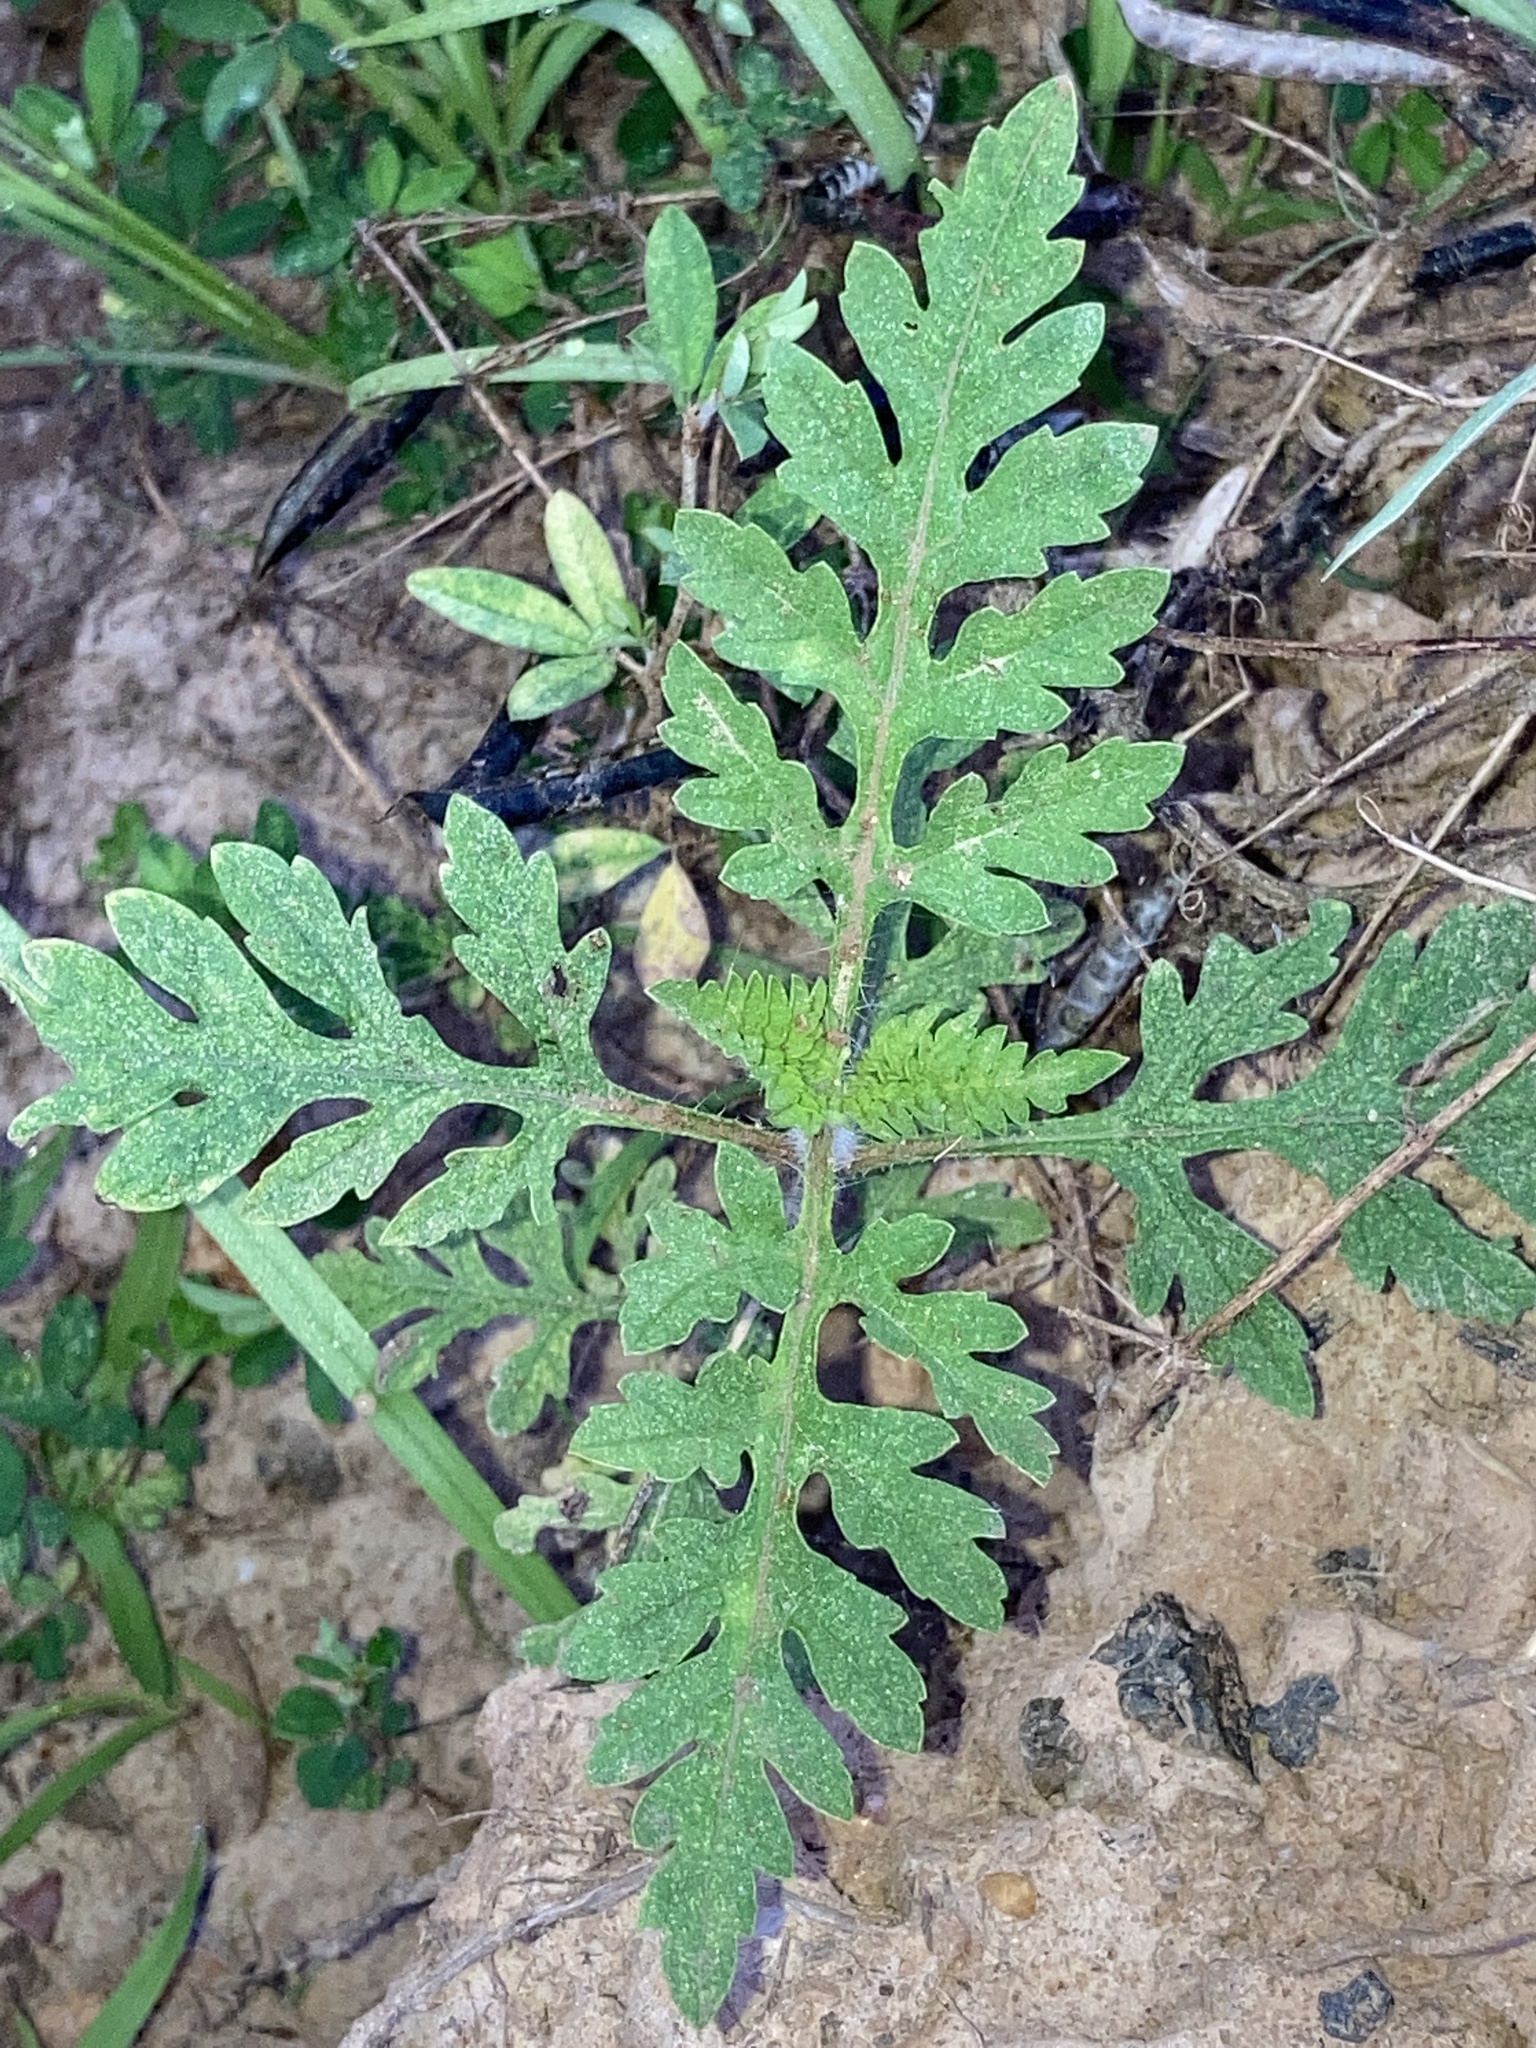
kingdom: Plantae
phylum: Tracheophyta
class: Magnoliopsida
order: Asterales
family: Asteraceae
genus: Ambrosia
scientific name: Ambrosia artemisiifolia
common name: Annual ragweed
